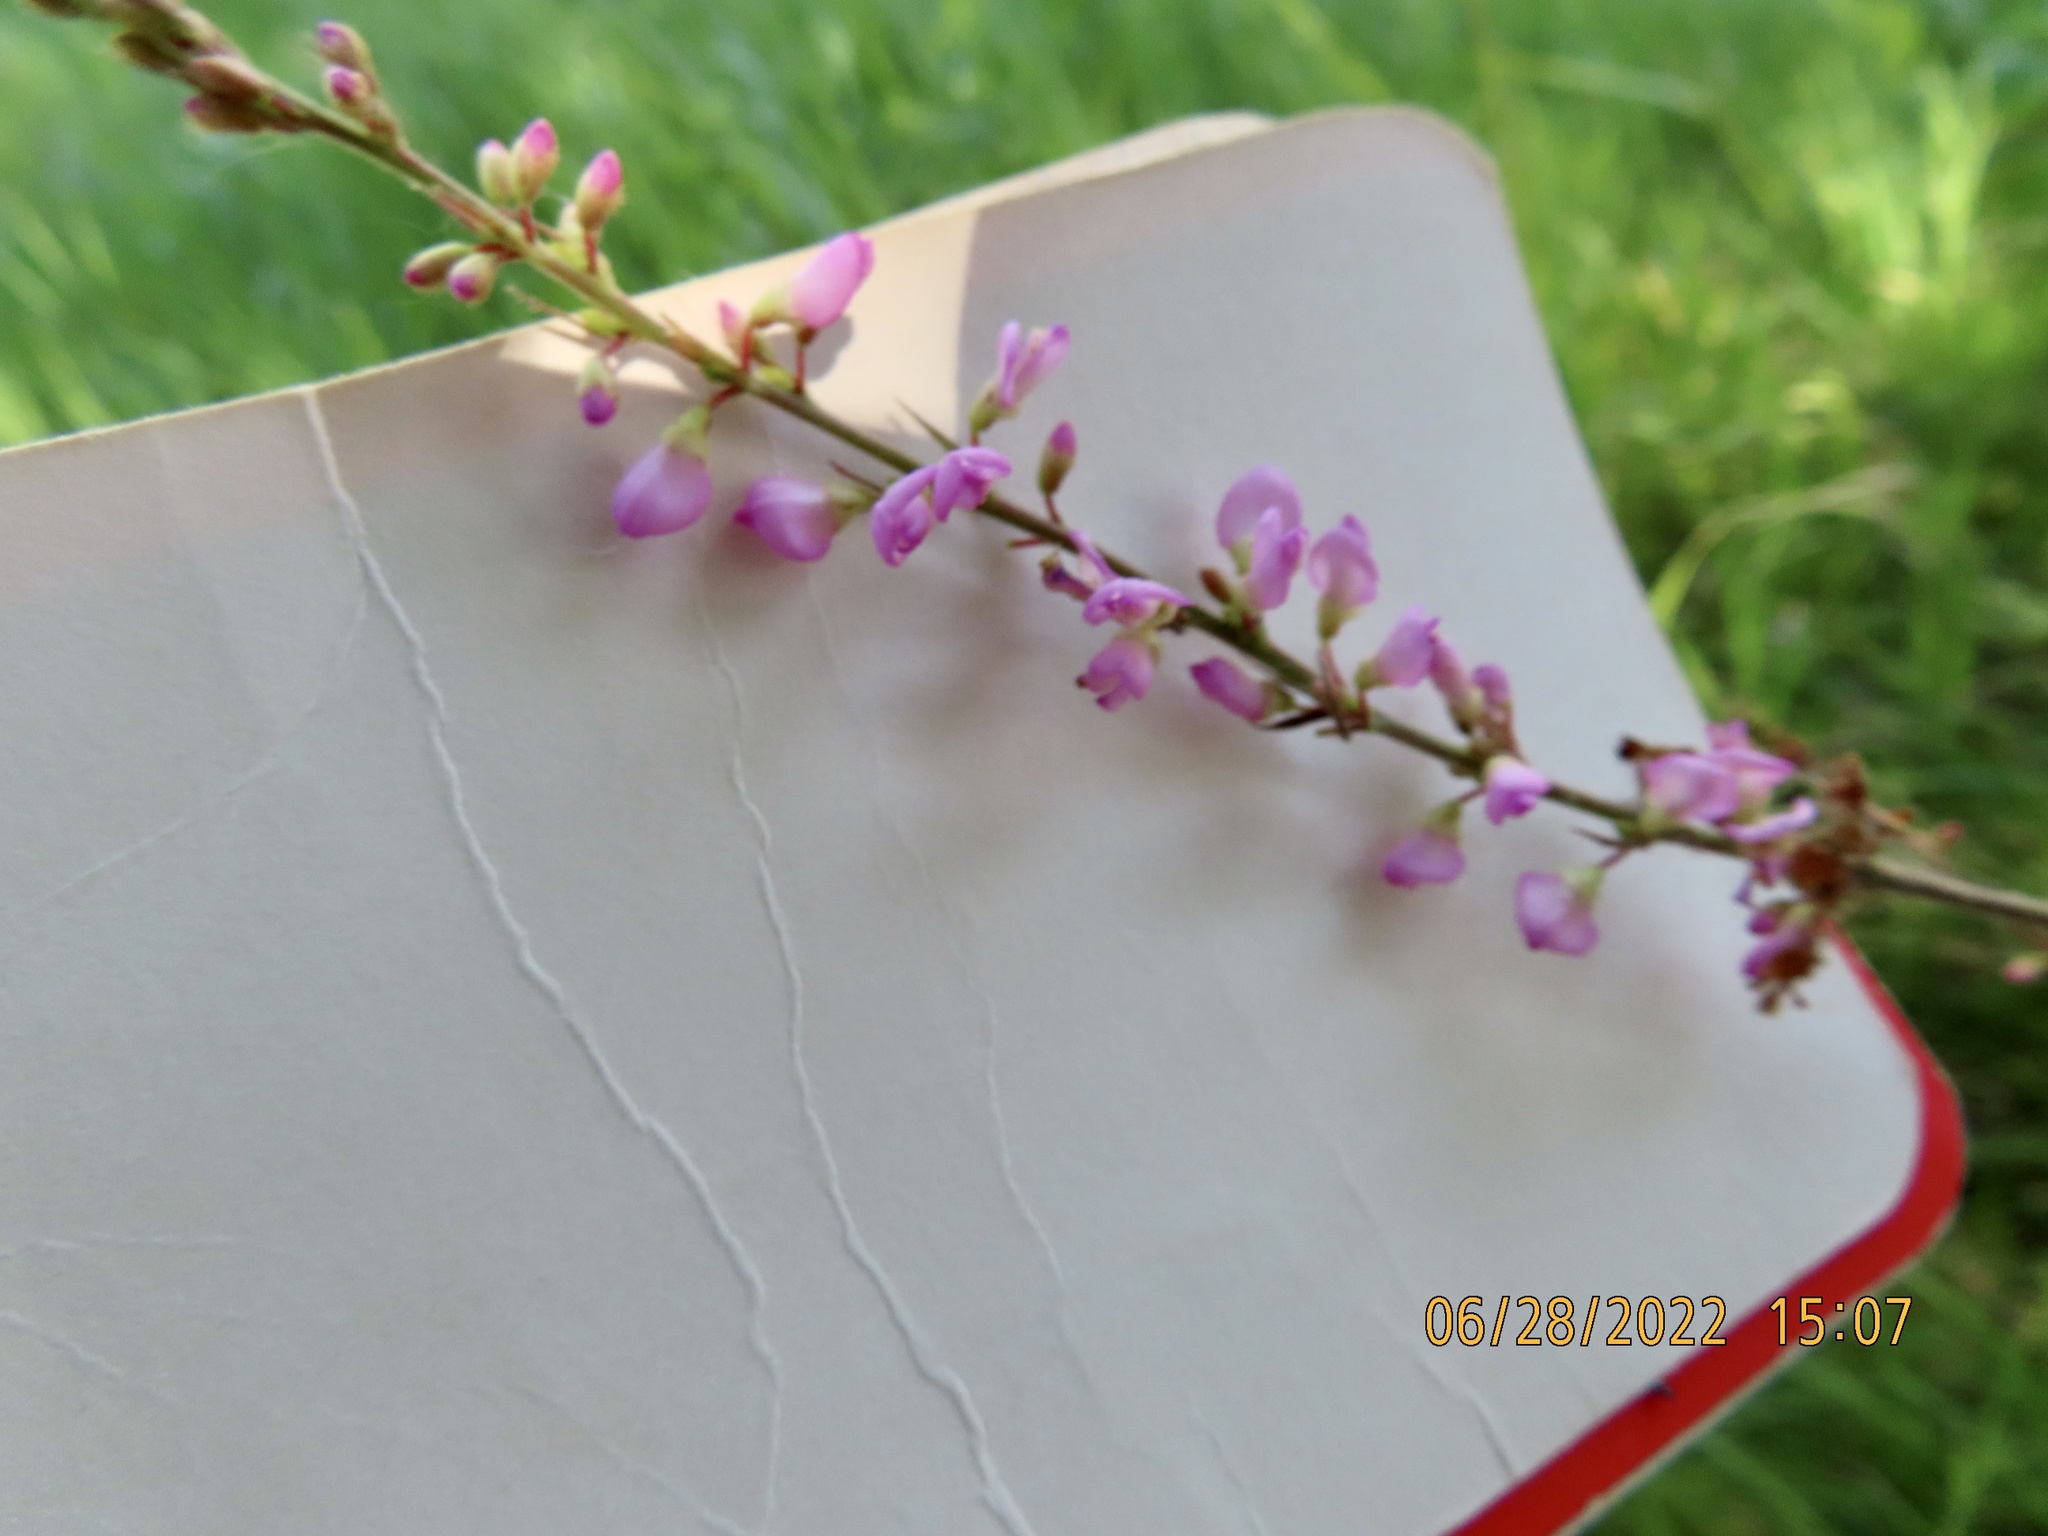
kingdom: Plantae
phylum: Tracheophyta
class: Magnoliopsida
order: Fabales
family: Fabaceae
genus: Hylodesmum
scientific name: Hylodesmum glutinosum
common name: Clustered-leaved tick-trefoil
